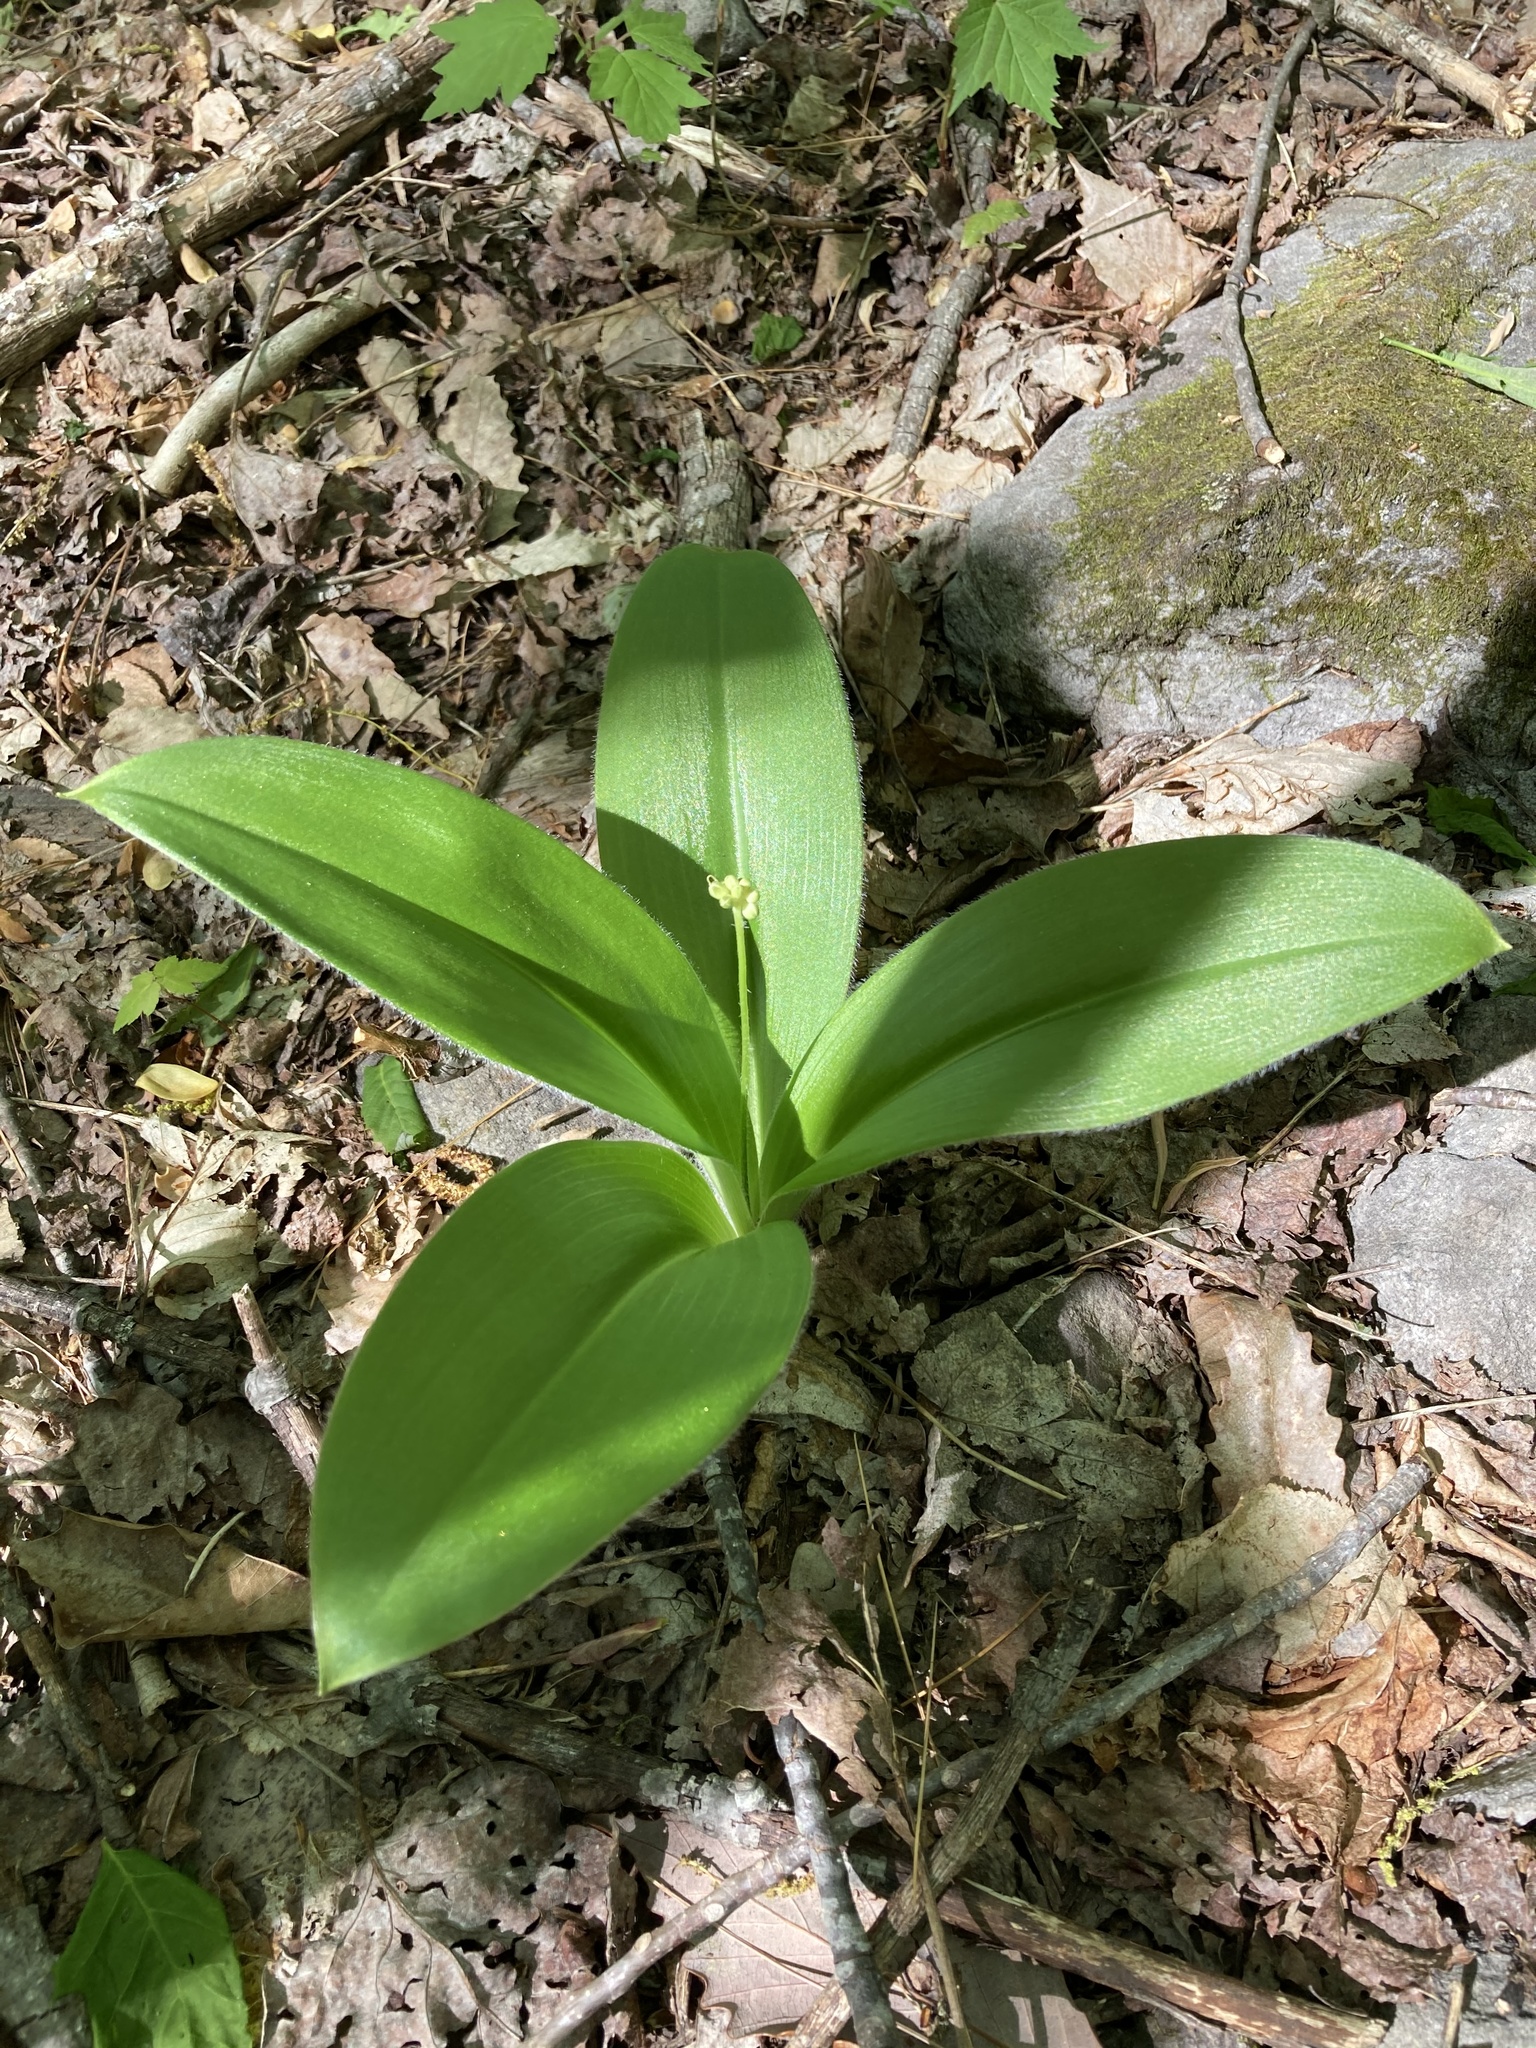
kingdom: Plantae
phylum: Tracheophyta
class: Liliopsida
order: Liliales
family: Liliaceae
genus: Clintonia
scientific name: Clintonia umbellulata
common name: Speckle wood-lily
